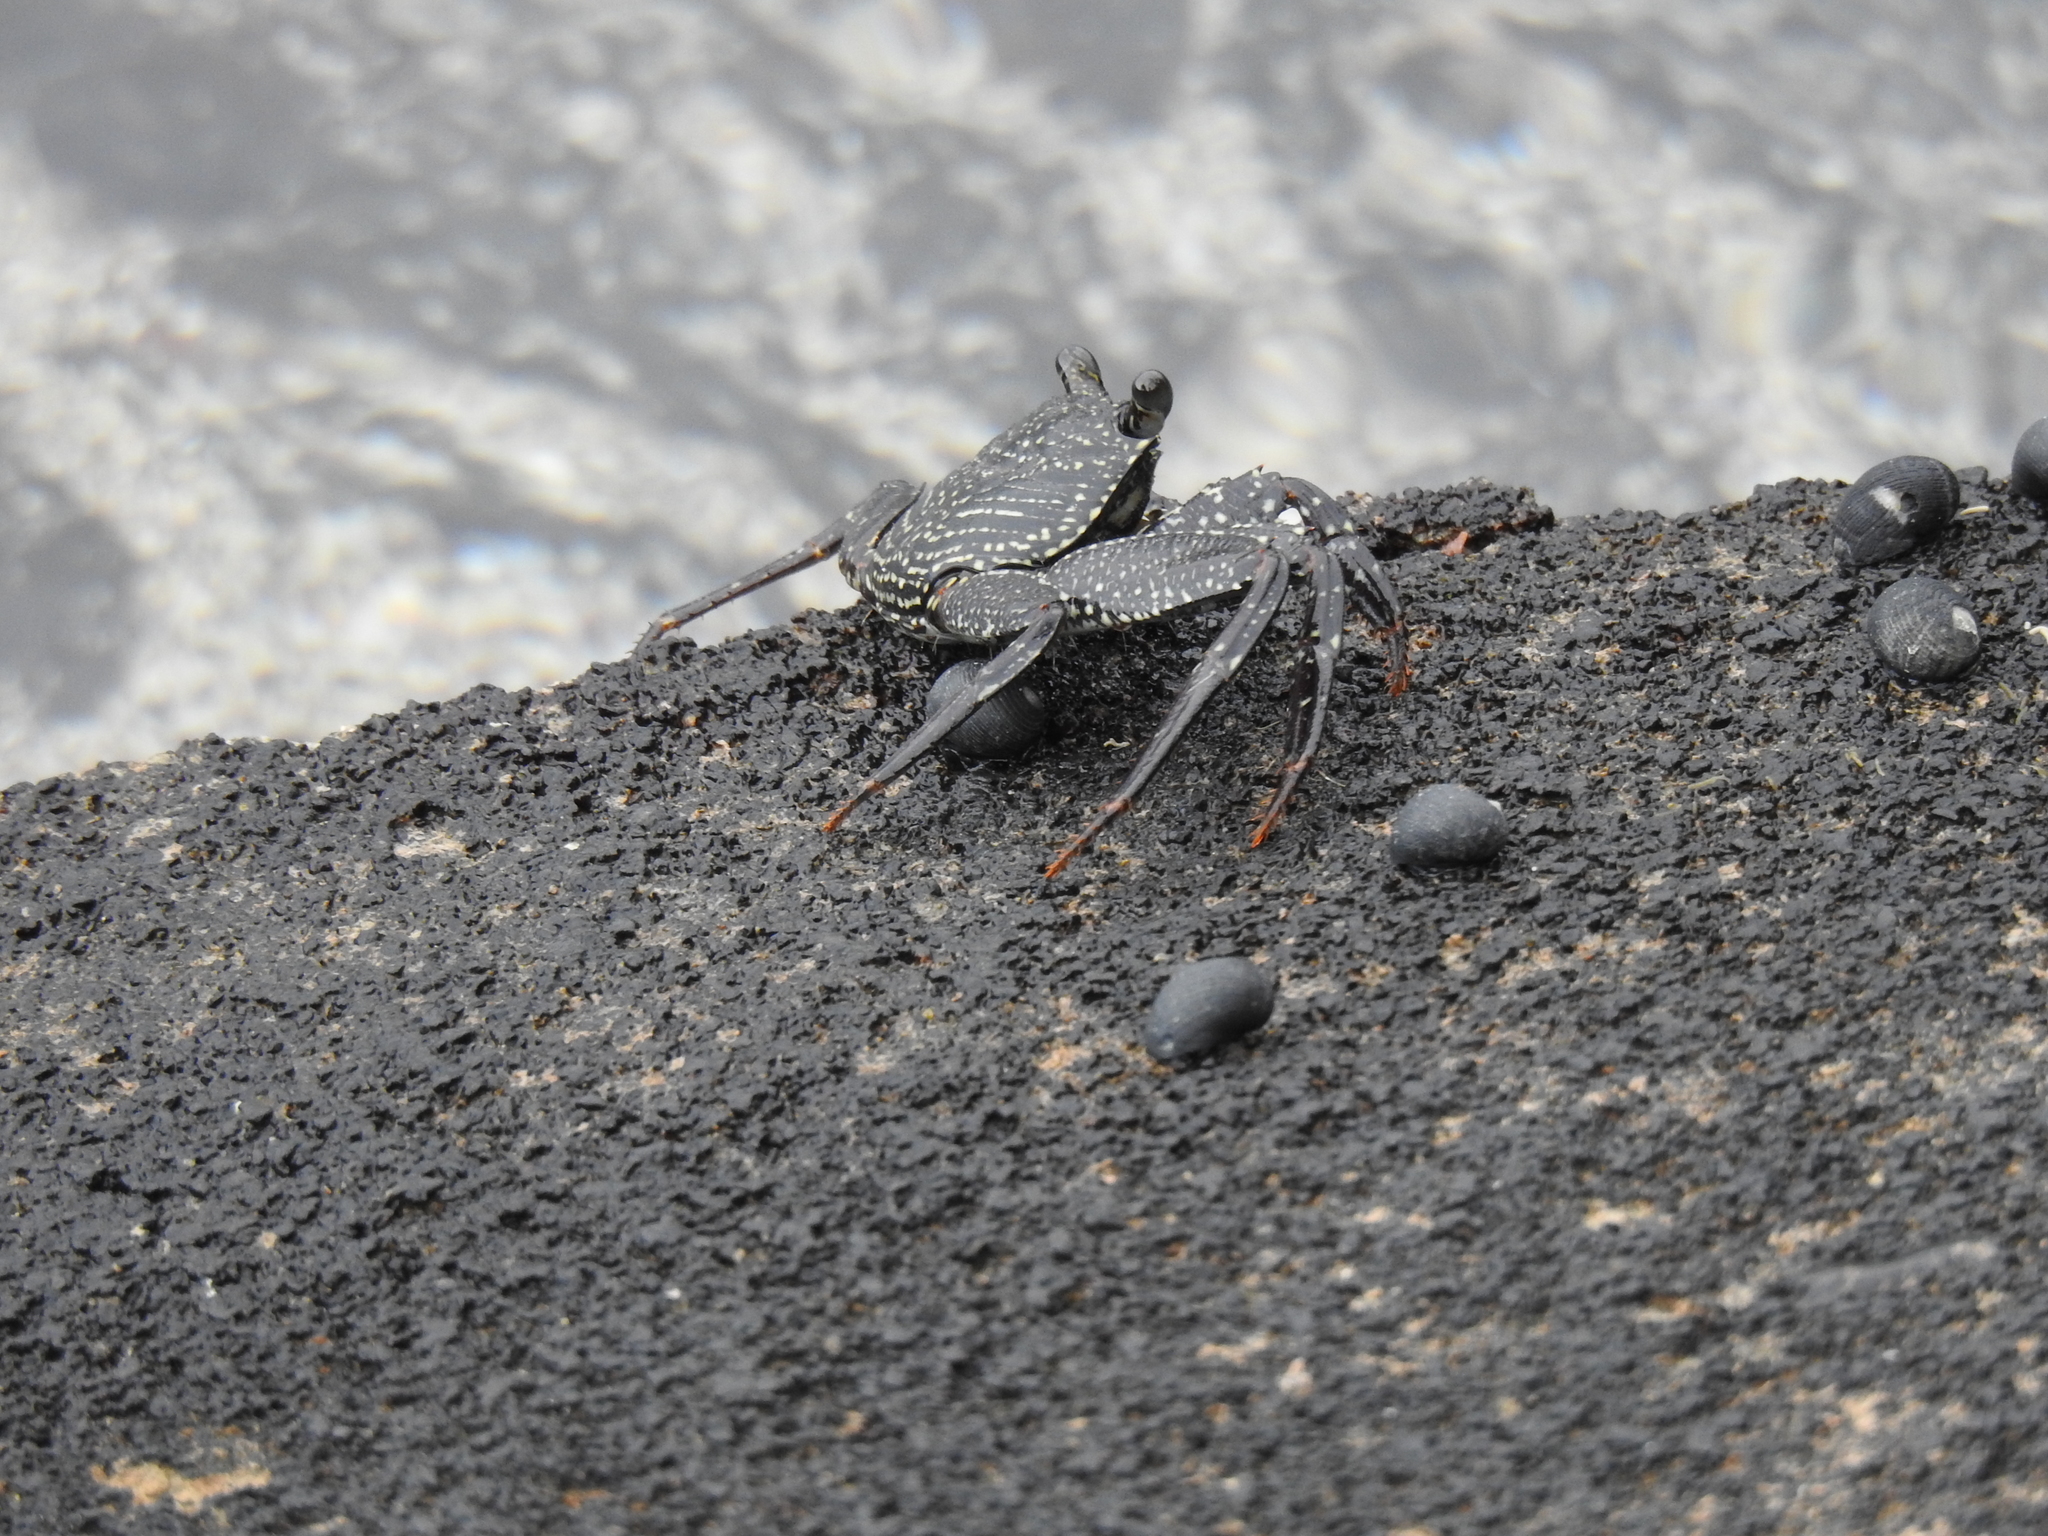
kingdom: Animalia
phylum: Arthropoda
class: Malacostraca
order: Decapoda
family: Grapsidae
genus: Grapsus
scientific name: Grapsus tenuicrustatus
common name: Natal lightfoot crab
